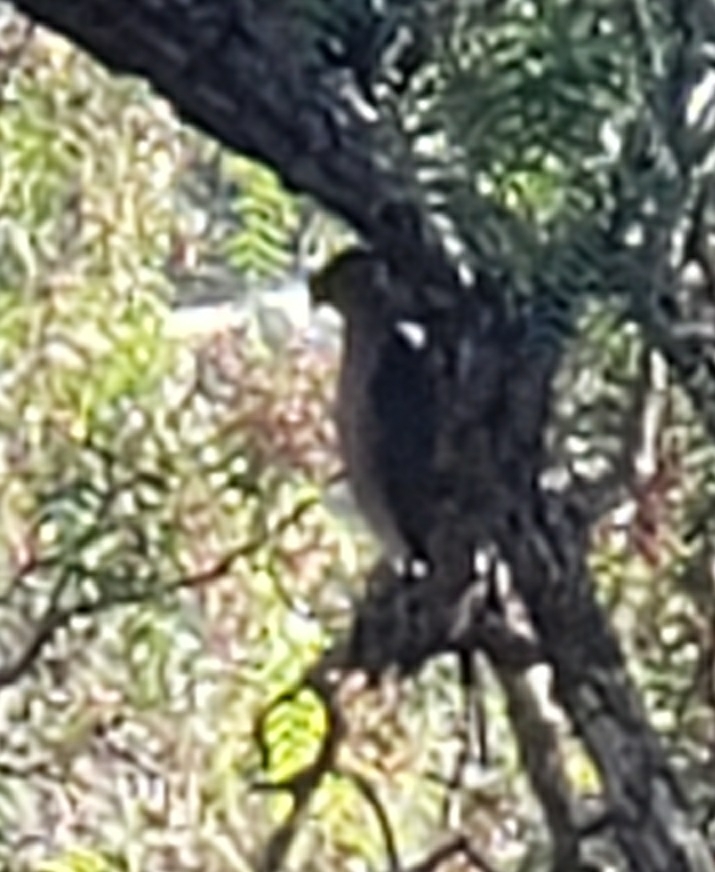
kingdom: Animalia
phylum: Chordata
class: Aves
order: Accipitriformes
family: Accipitridae
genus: Accipiter
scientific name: Accipiter
